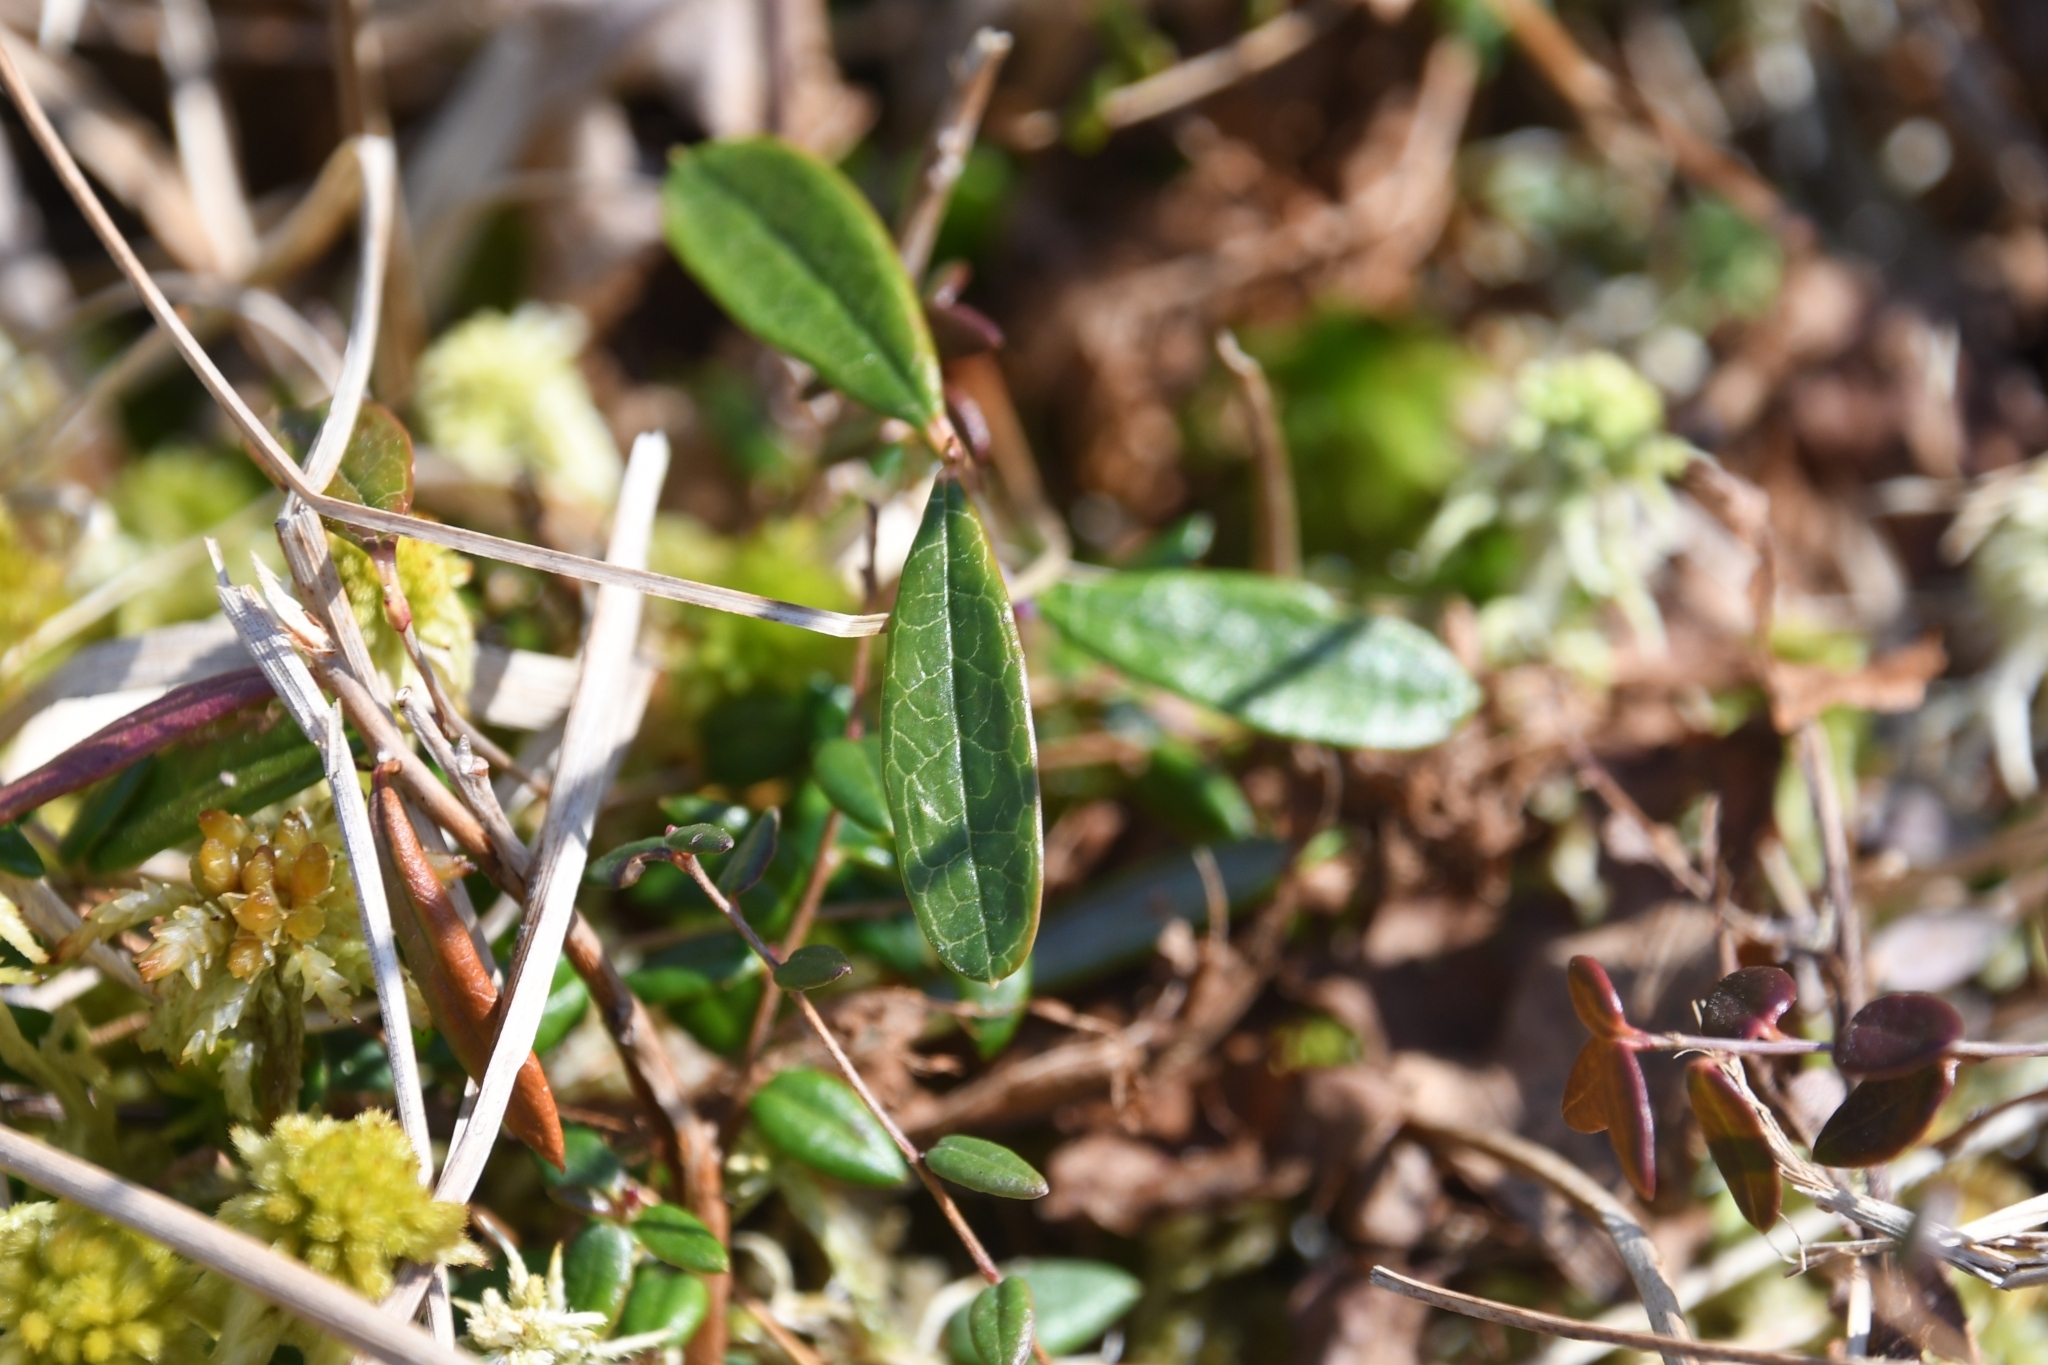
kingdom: Plantae
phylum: Tracheophyta
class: Magnoliopsida
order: Ericales
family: Ericaceae
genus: Andromeda
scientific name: Andromeda polifolia
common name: Bog-rosemary
